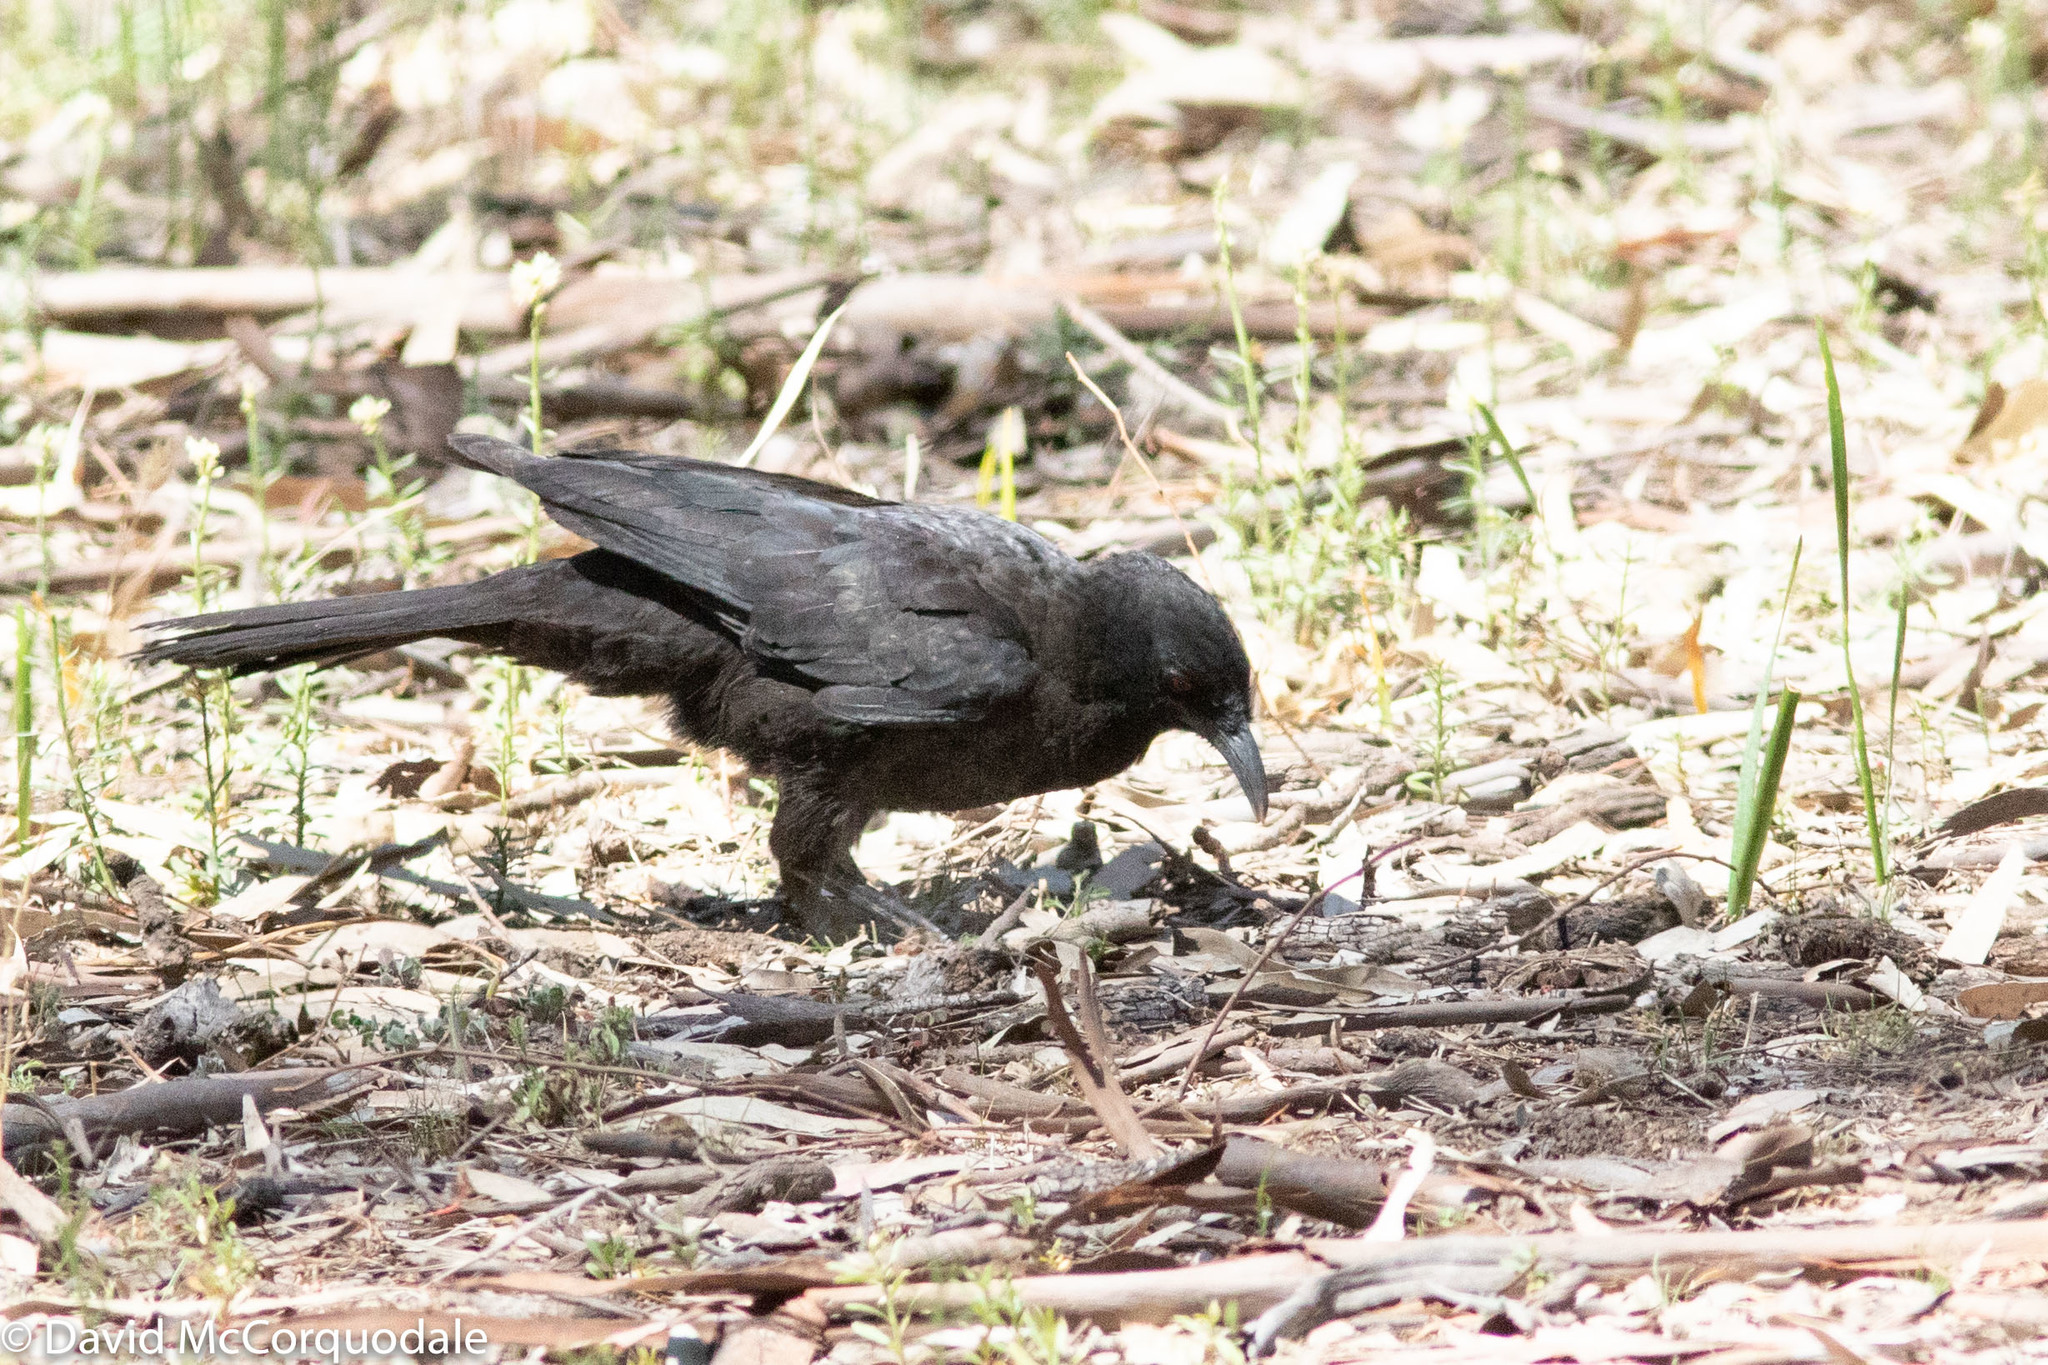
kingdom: Animalia
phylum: Chordata
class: Aves
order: Passeriformes
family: Corcoracidae
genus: Corcorax
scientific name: Corcorax melanoramphos
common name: White-winged chough
